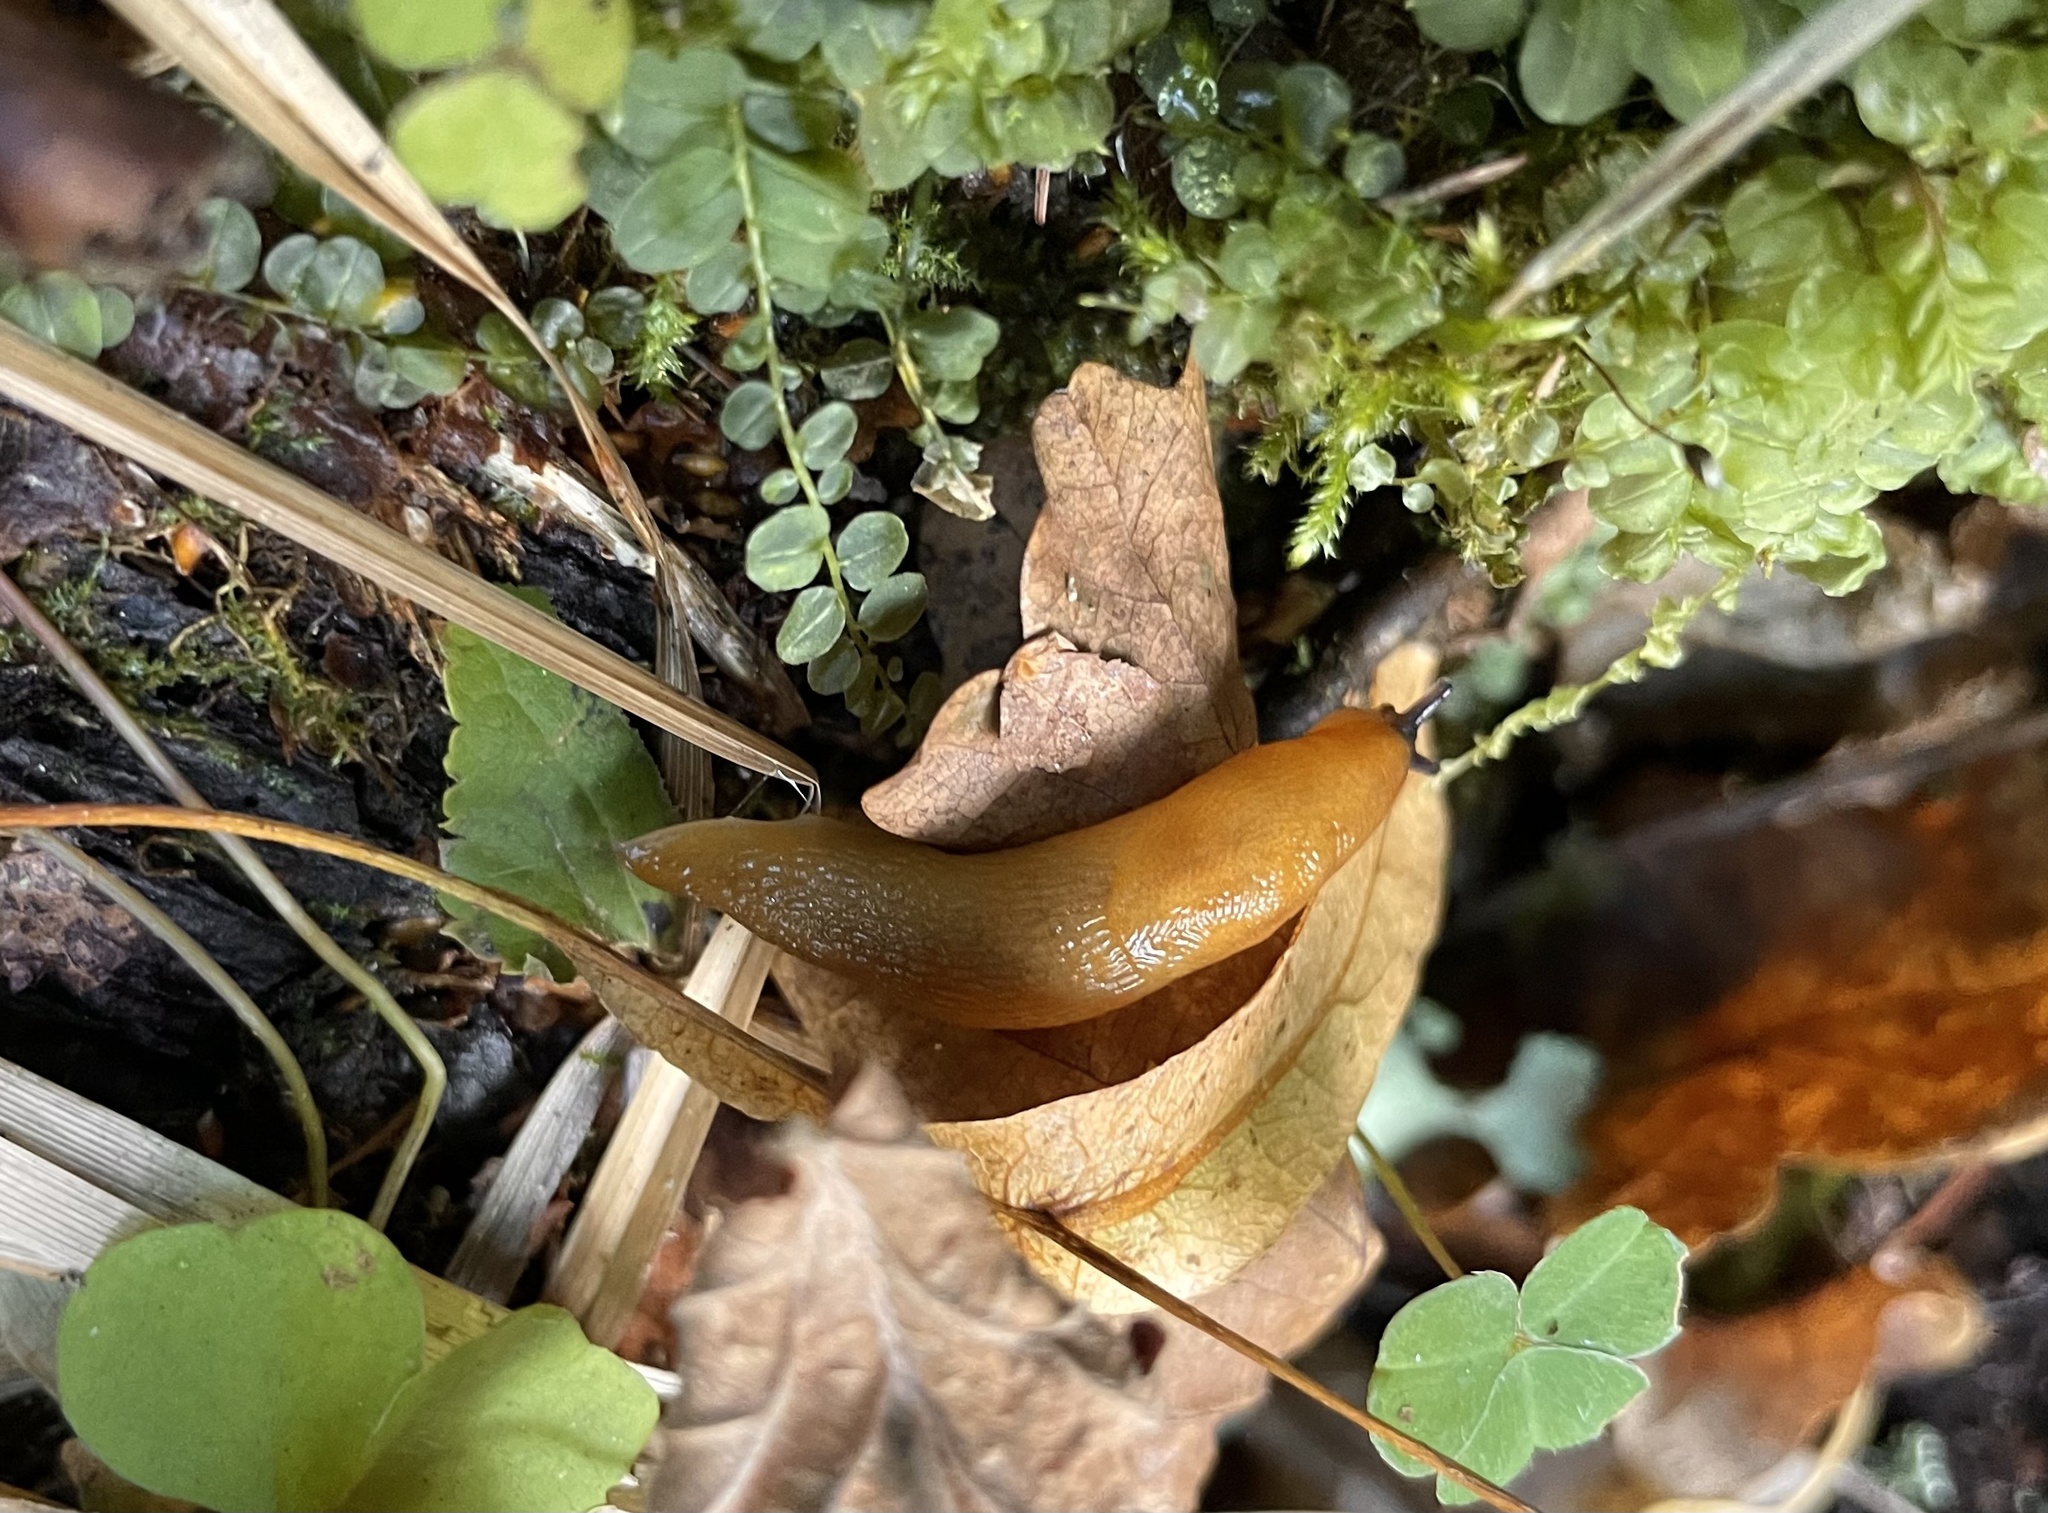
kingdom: Animalia
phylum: Mollusca
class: Gastropoda
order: Stylommatophora
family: Limacidae
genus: Malacolimax
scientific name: Malacolimax tenellus
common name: Lemon slug
